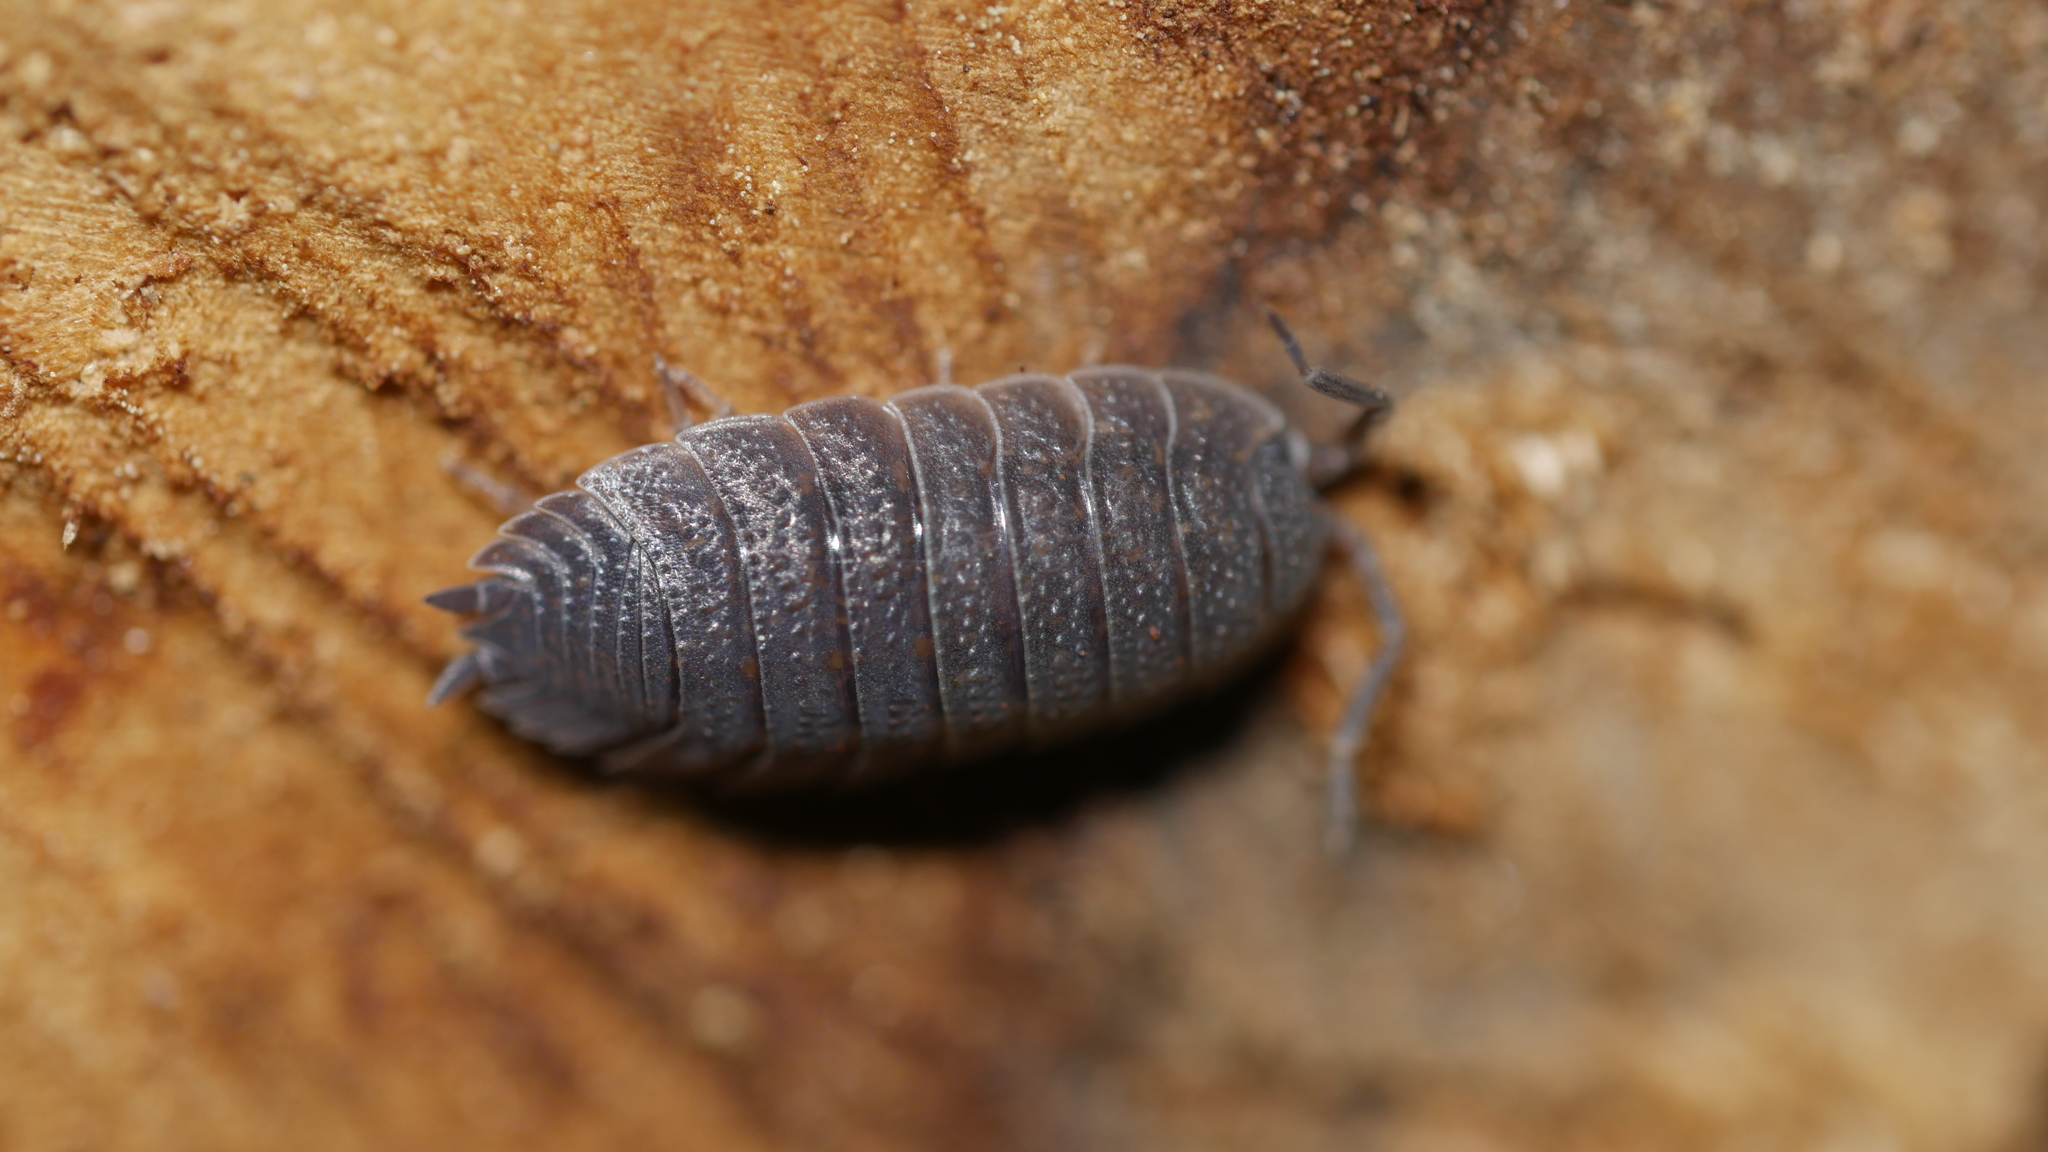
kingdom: Animalia
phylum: Arthropoda
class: Malacostraca
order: Isopoda
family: Porcellionidae
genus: Porcellio
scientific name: Porcellio scaber
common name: Common rough woodlouse
